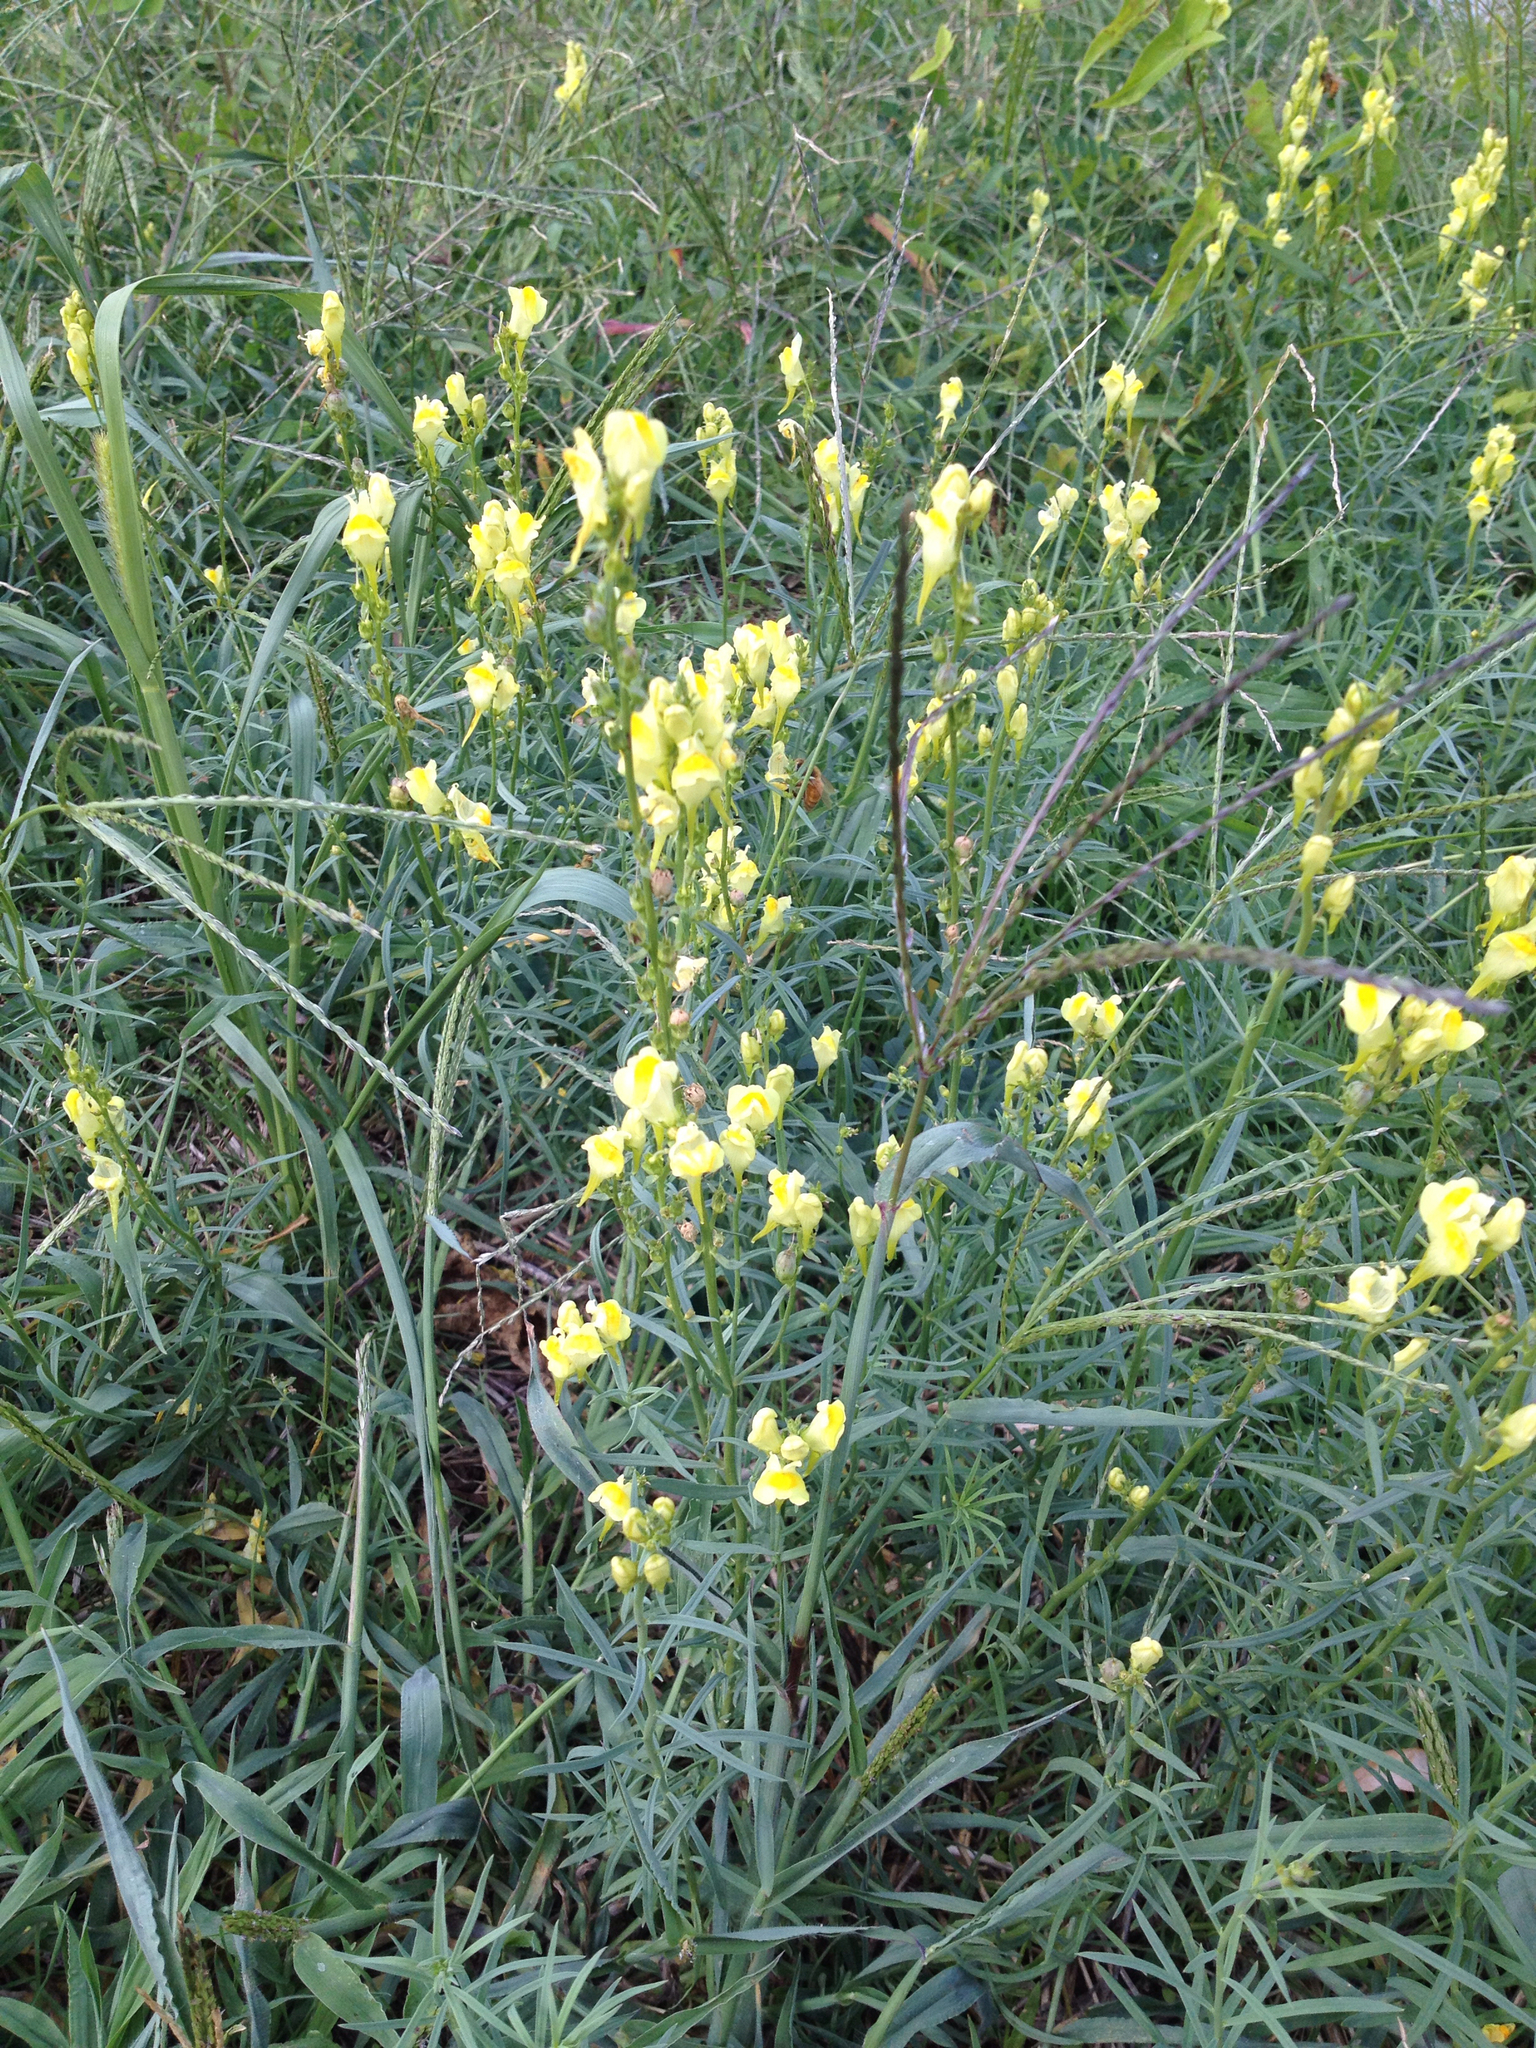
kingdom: Plantae
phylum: Tracheophyta
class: Magnoliopsida
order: Lamiales
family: Plantaginaceae
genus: Linaria
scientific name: Linaria vulgaris
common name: Butter and eggs
